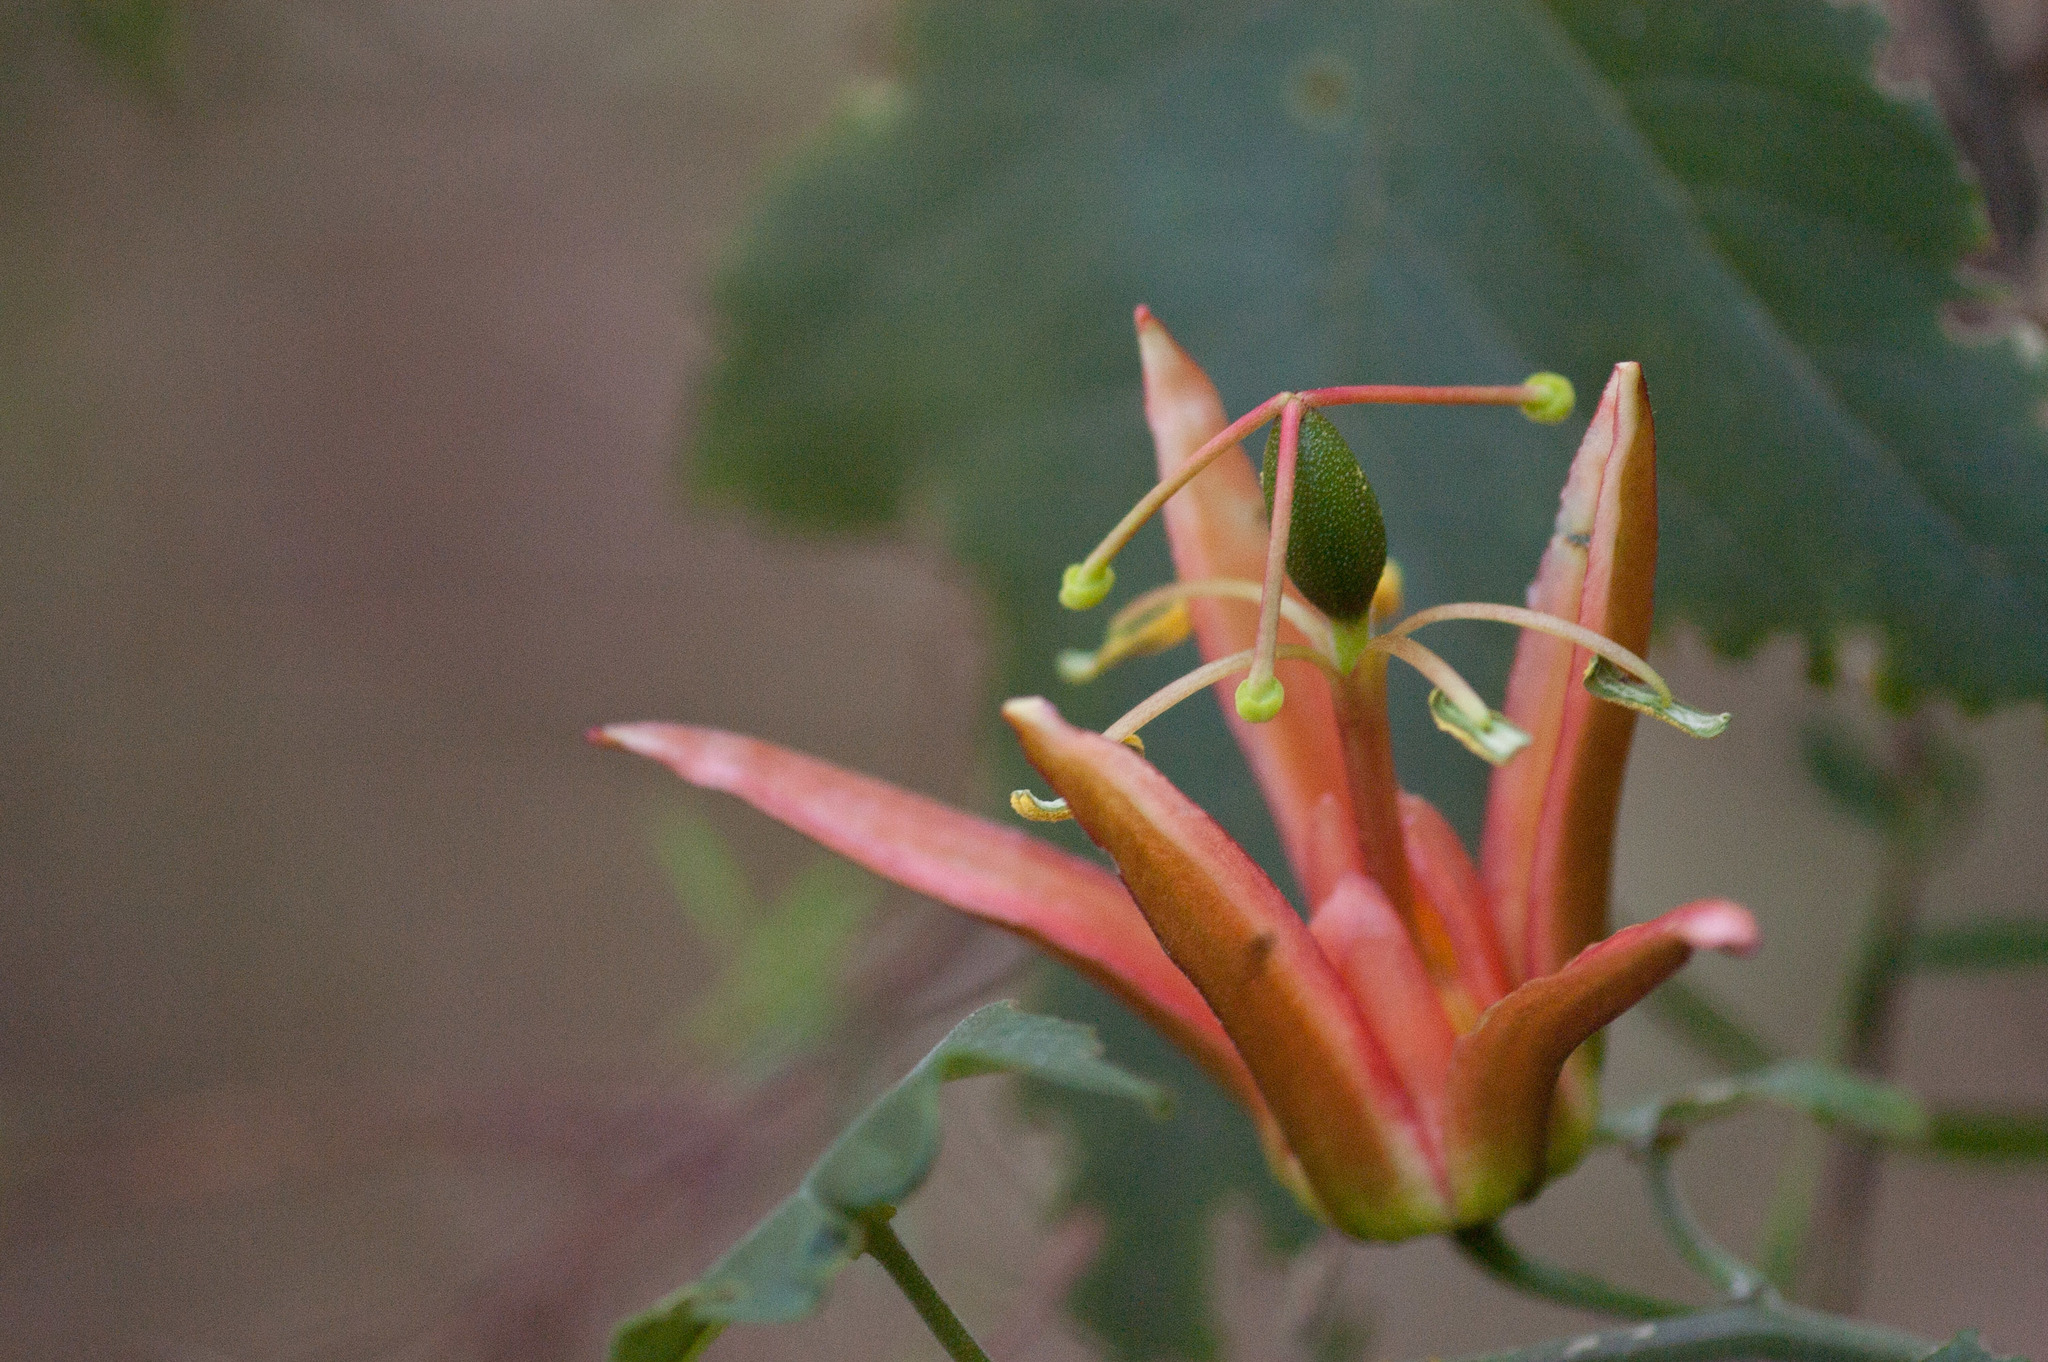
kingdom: Plantae
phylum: Tracheophyta
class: Magnoliopsida
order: Malpighiales
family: Passifloraceae
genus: Passiflora
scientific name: Passiflora herbertiana
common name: Yellow passionflower
